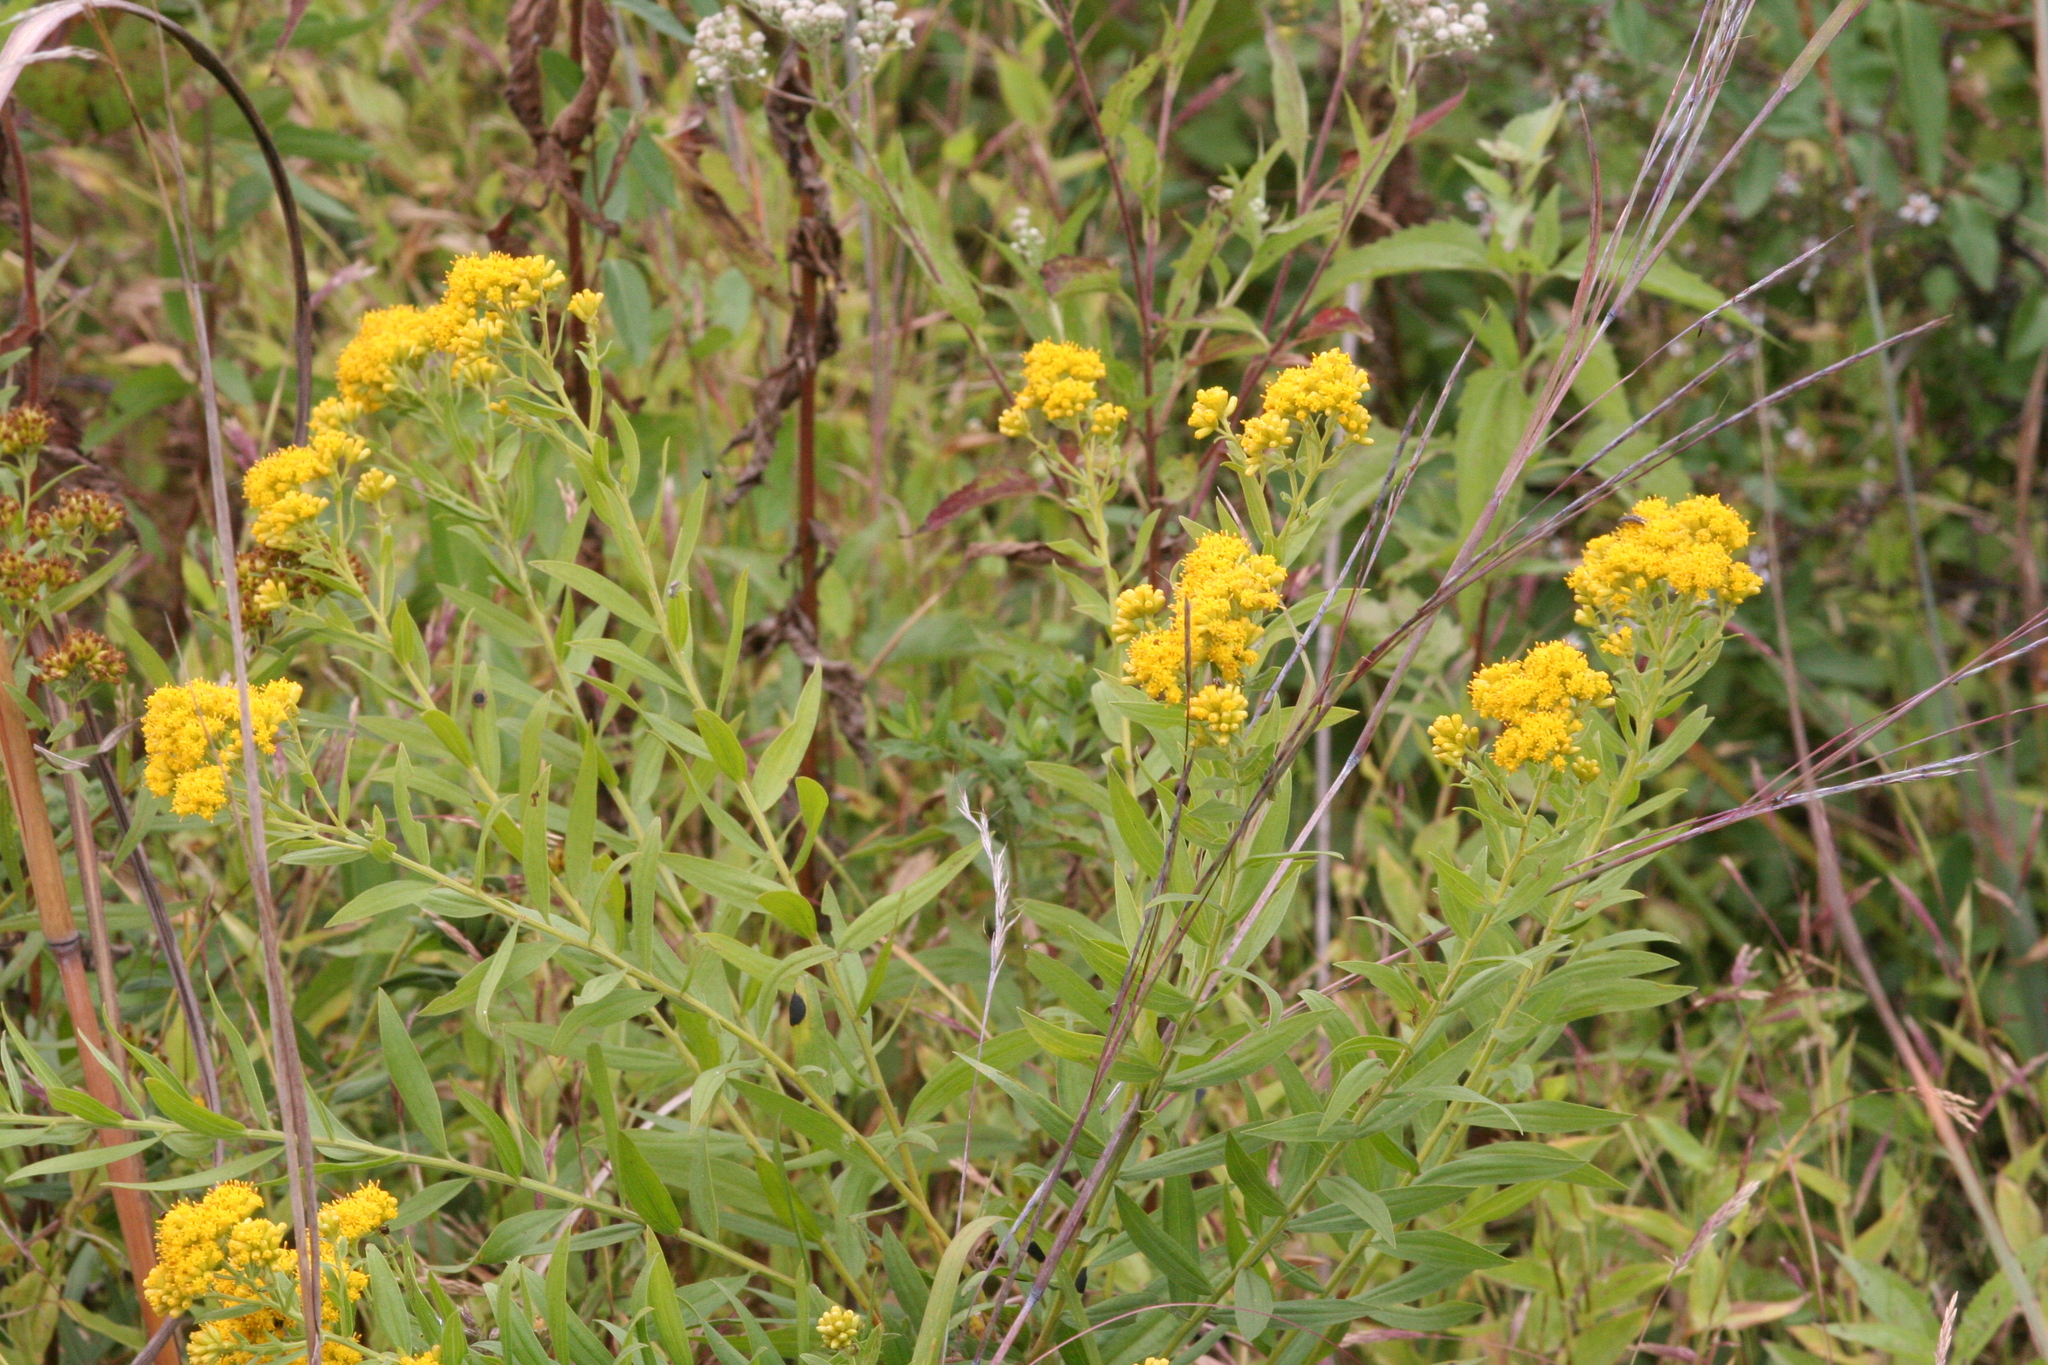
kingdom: Plantae
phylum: Tracheophyta
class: Magnoliopsida
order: Asterales
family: Asteraceae
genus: Euthamia
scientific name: Euthamia graminifolia
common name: Common goldentop
